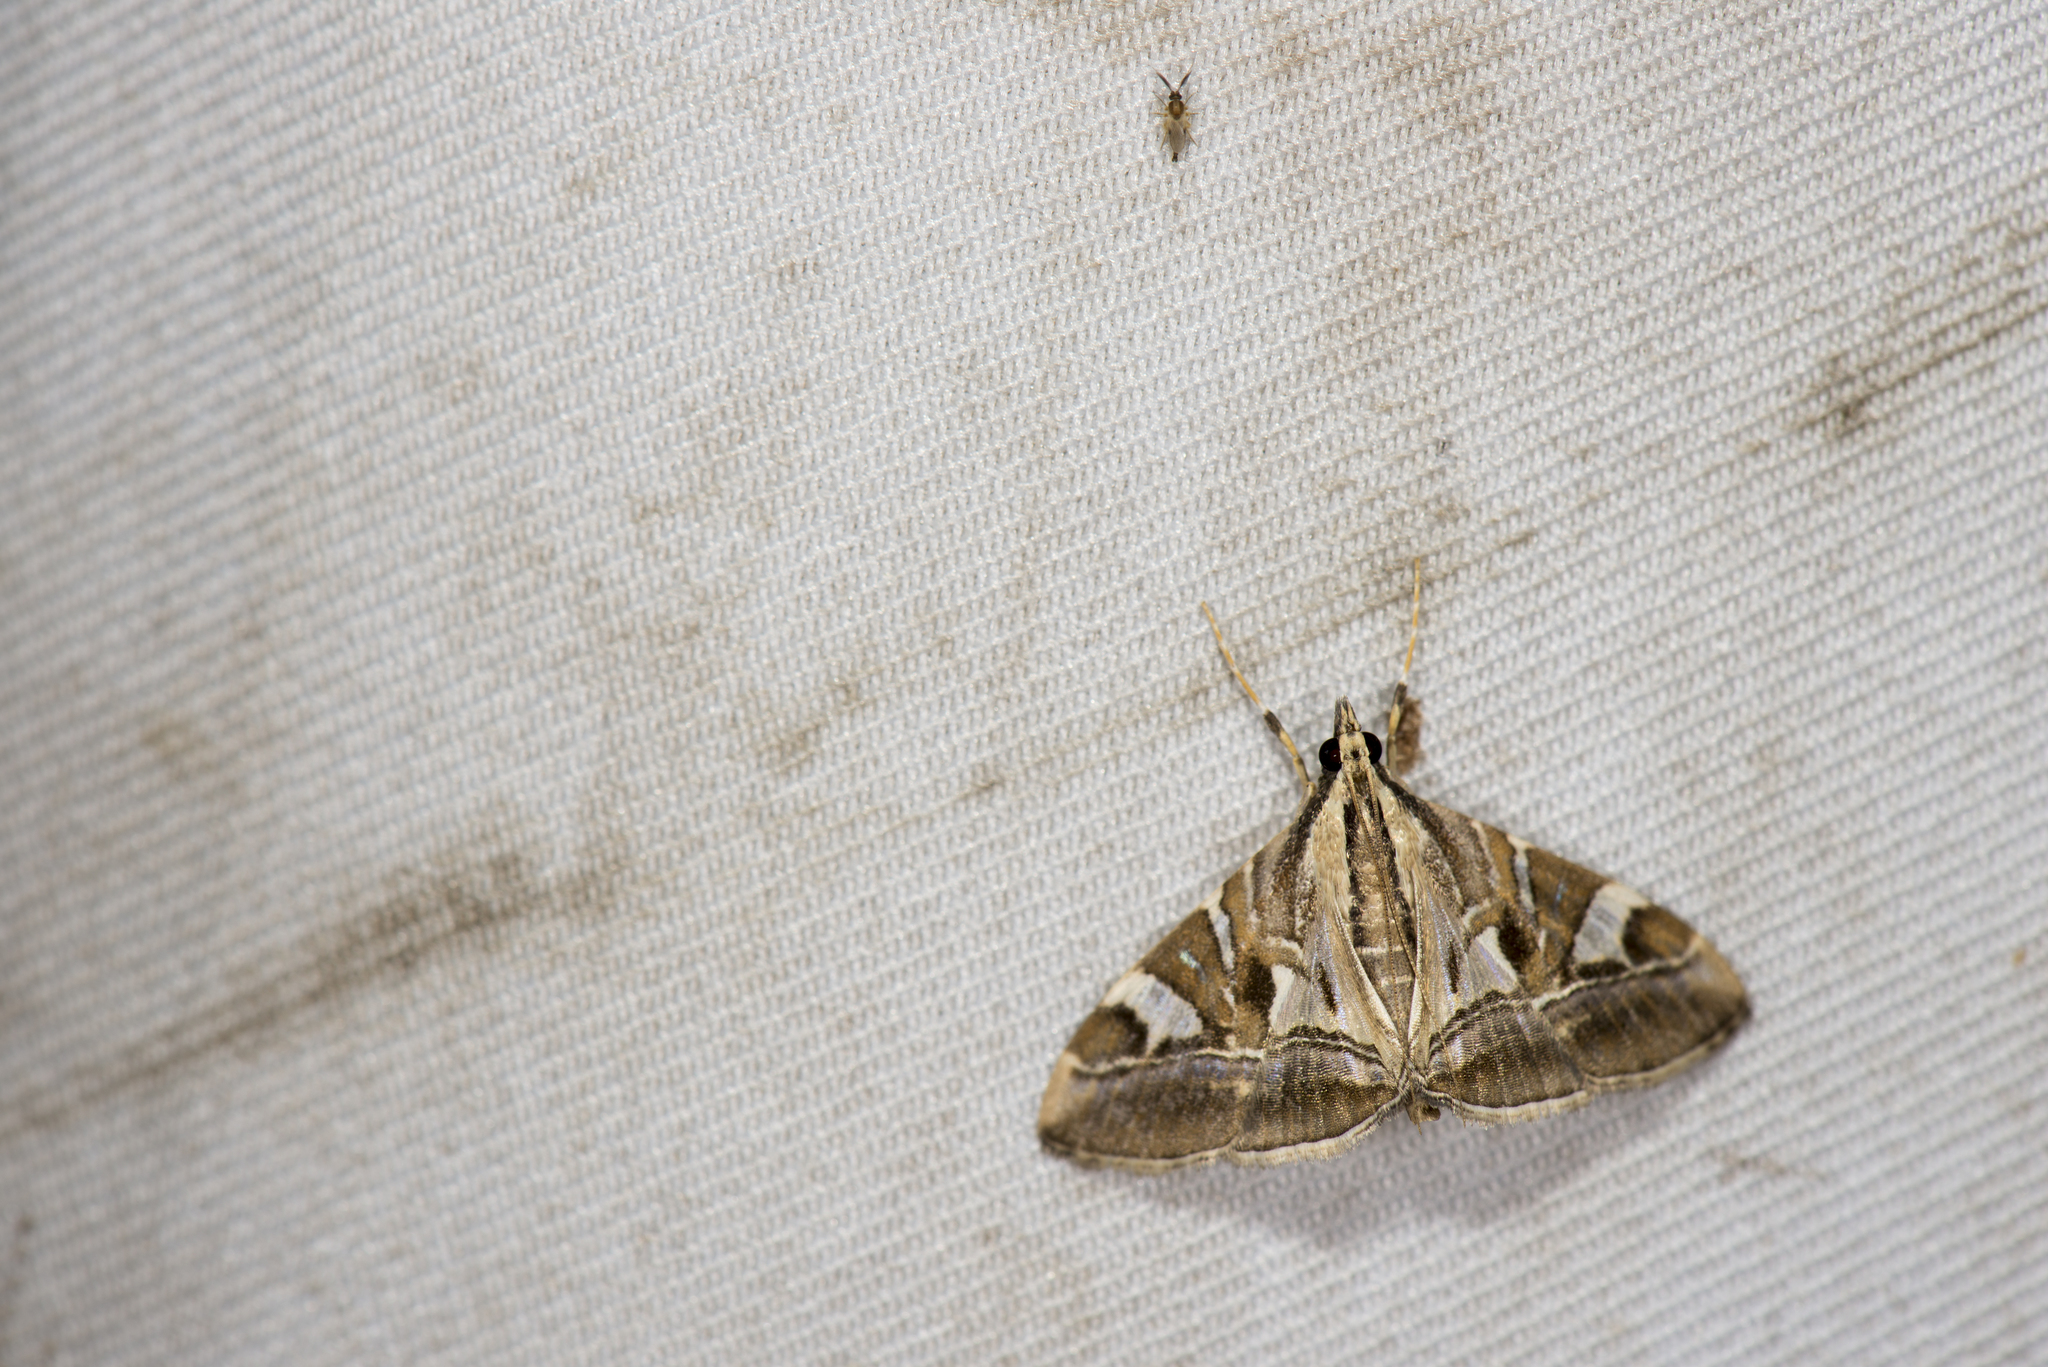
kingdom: Animalia
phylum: Arthropoda
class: Insecta
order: Lepidoptera
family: Crambidae
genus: Agrioglypta
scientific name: Agrioglypta itysalis
